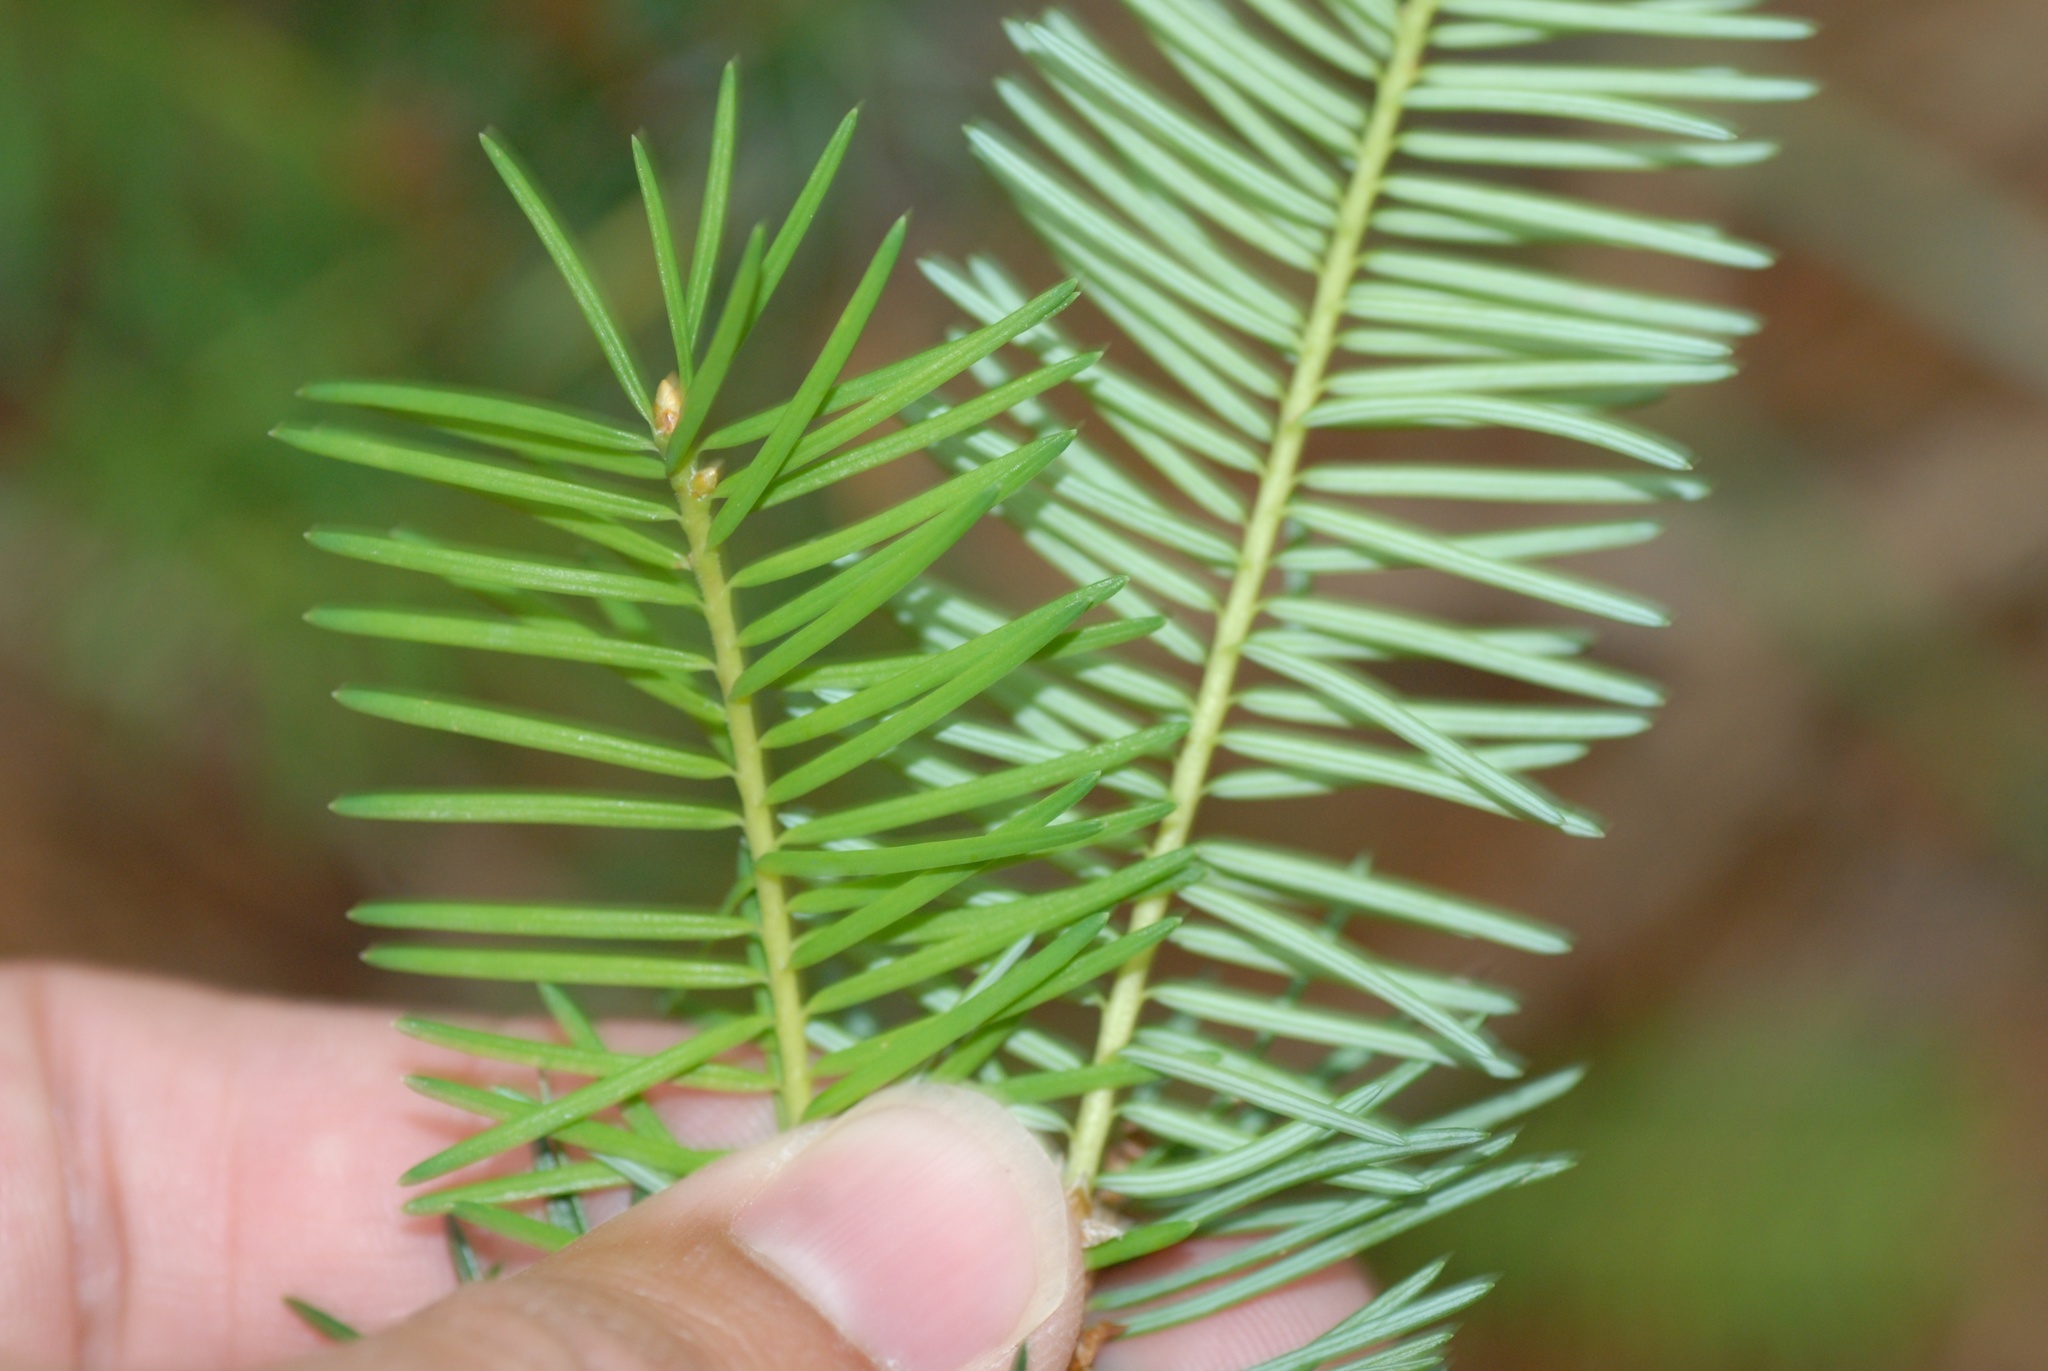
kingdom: Plantae
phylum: Tracheophyta
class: Pinopsida
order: Pinales
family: Pinaceae
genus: Pseudotsuga
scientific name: Pseudotsuga menziesii
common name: Douglas fir
